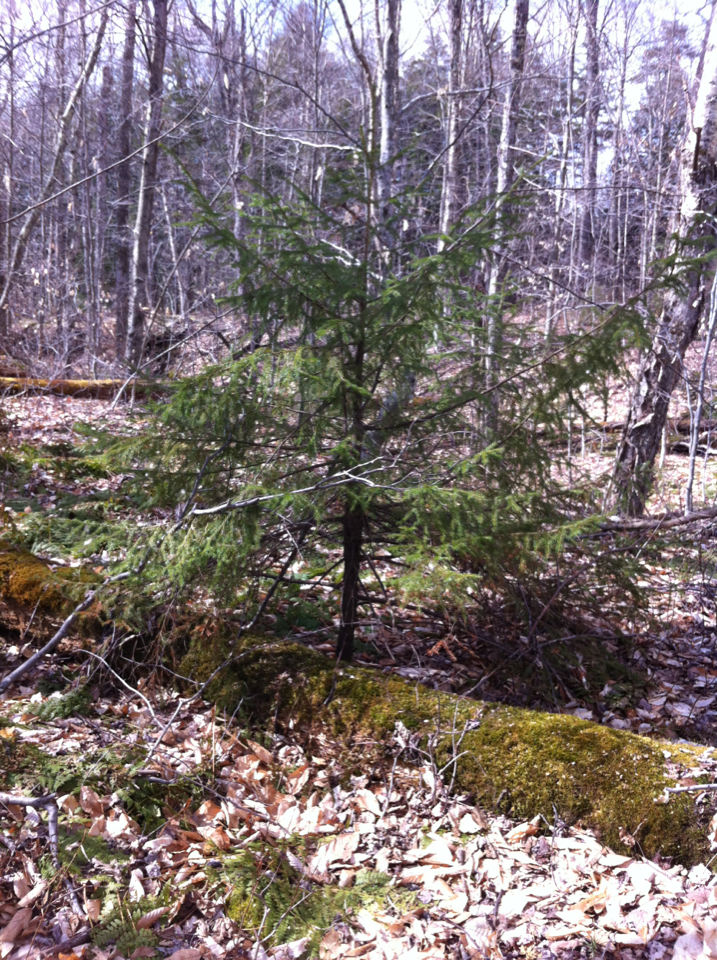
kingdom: Plantae
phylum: Tracheophyta
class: Pinopsida
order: Pinales
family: Pinaceae
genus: Picea
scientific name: Picea rubens
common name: Red spruce
